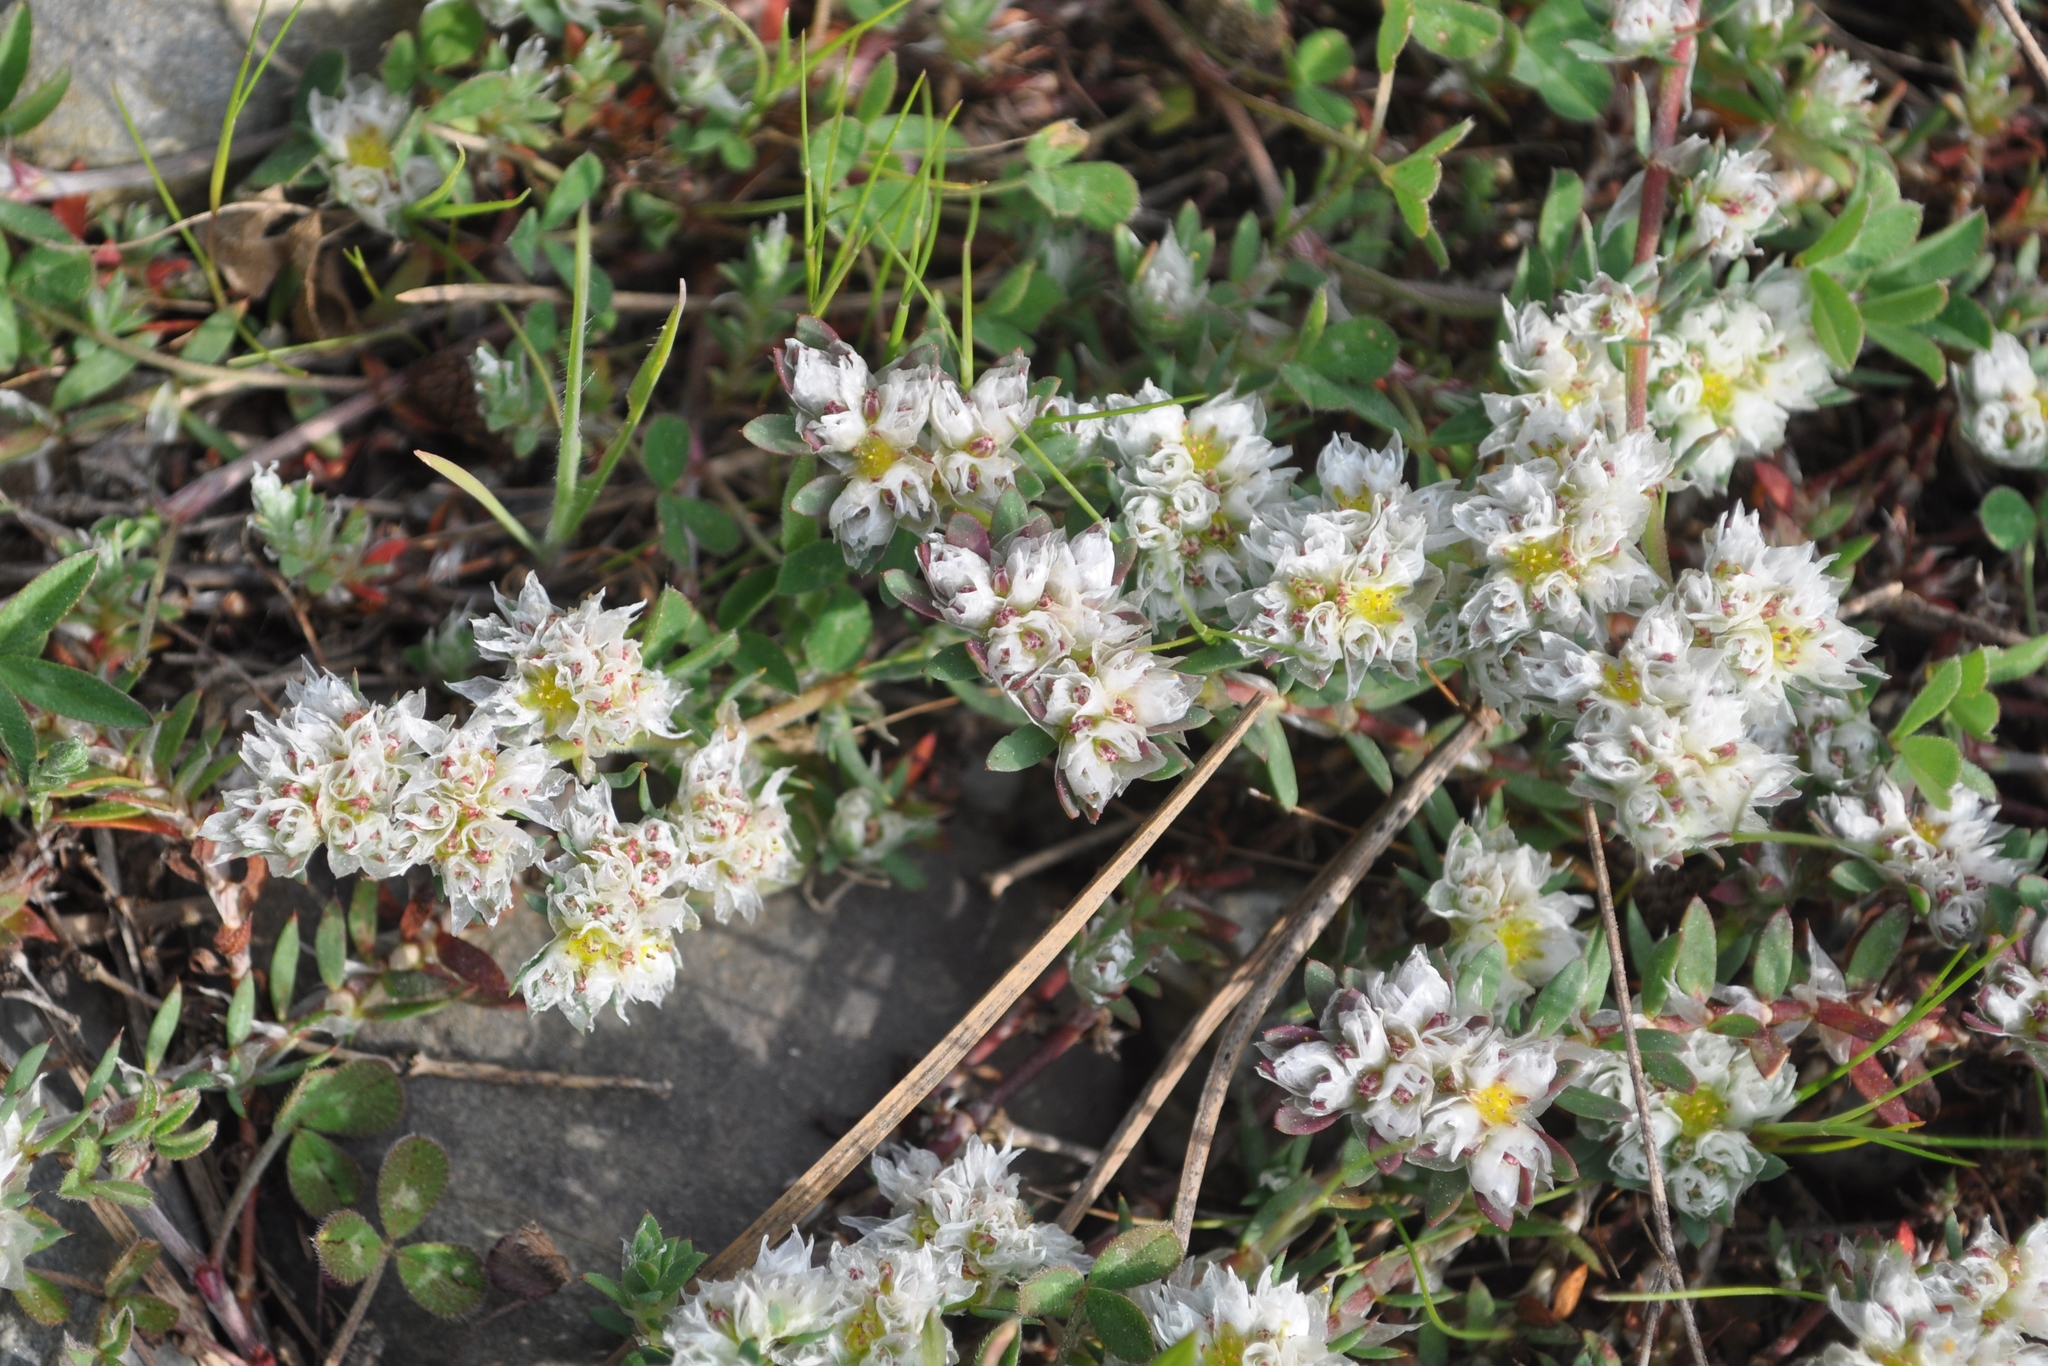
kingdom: Plantae
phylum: Tracheophyta
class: Magnoliopsida
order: Caryophyllales
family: Caryophyllaceae
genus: Paronychia
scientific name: Paronychia argentea
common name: Silver nailroot
